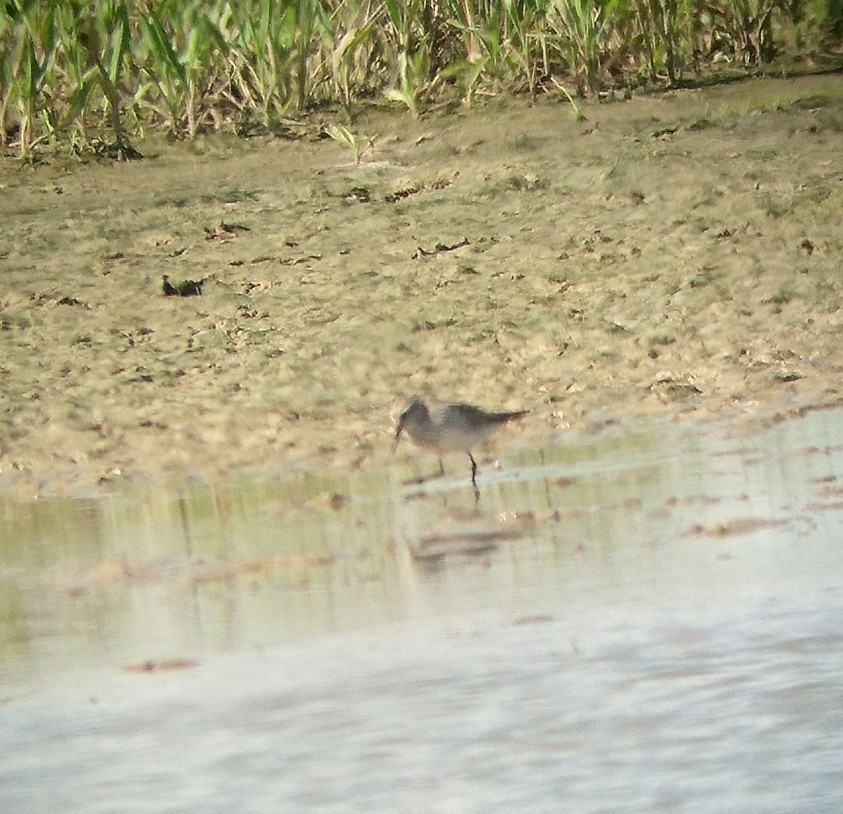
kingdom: Animalia
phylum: Chordata
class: Aves
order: Charadriiformes
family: Scolopacidae
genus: Calidris
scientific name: Calidris fuscicollis
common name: White-rumped sandpiper
